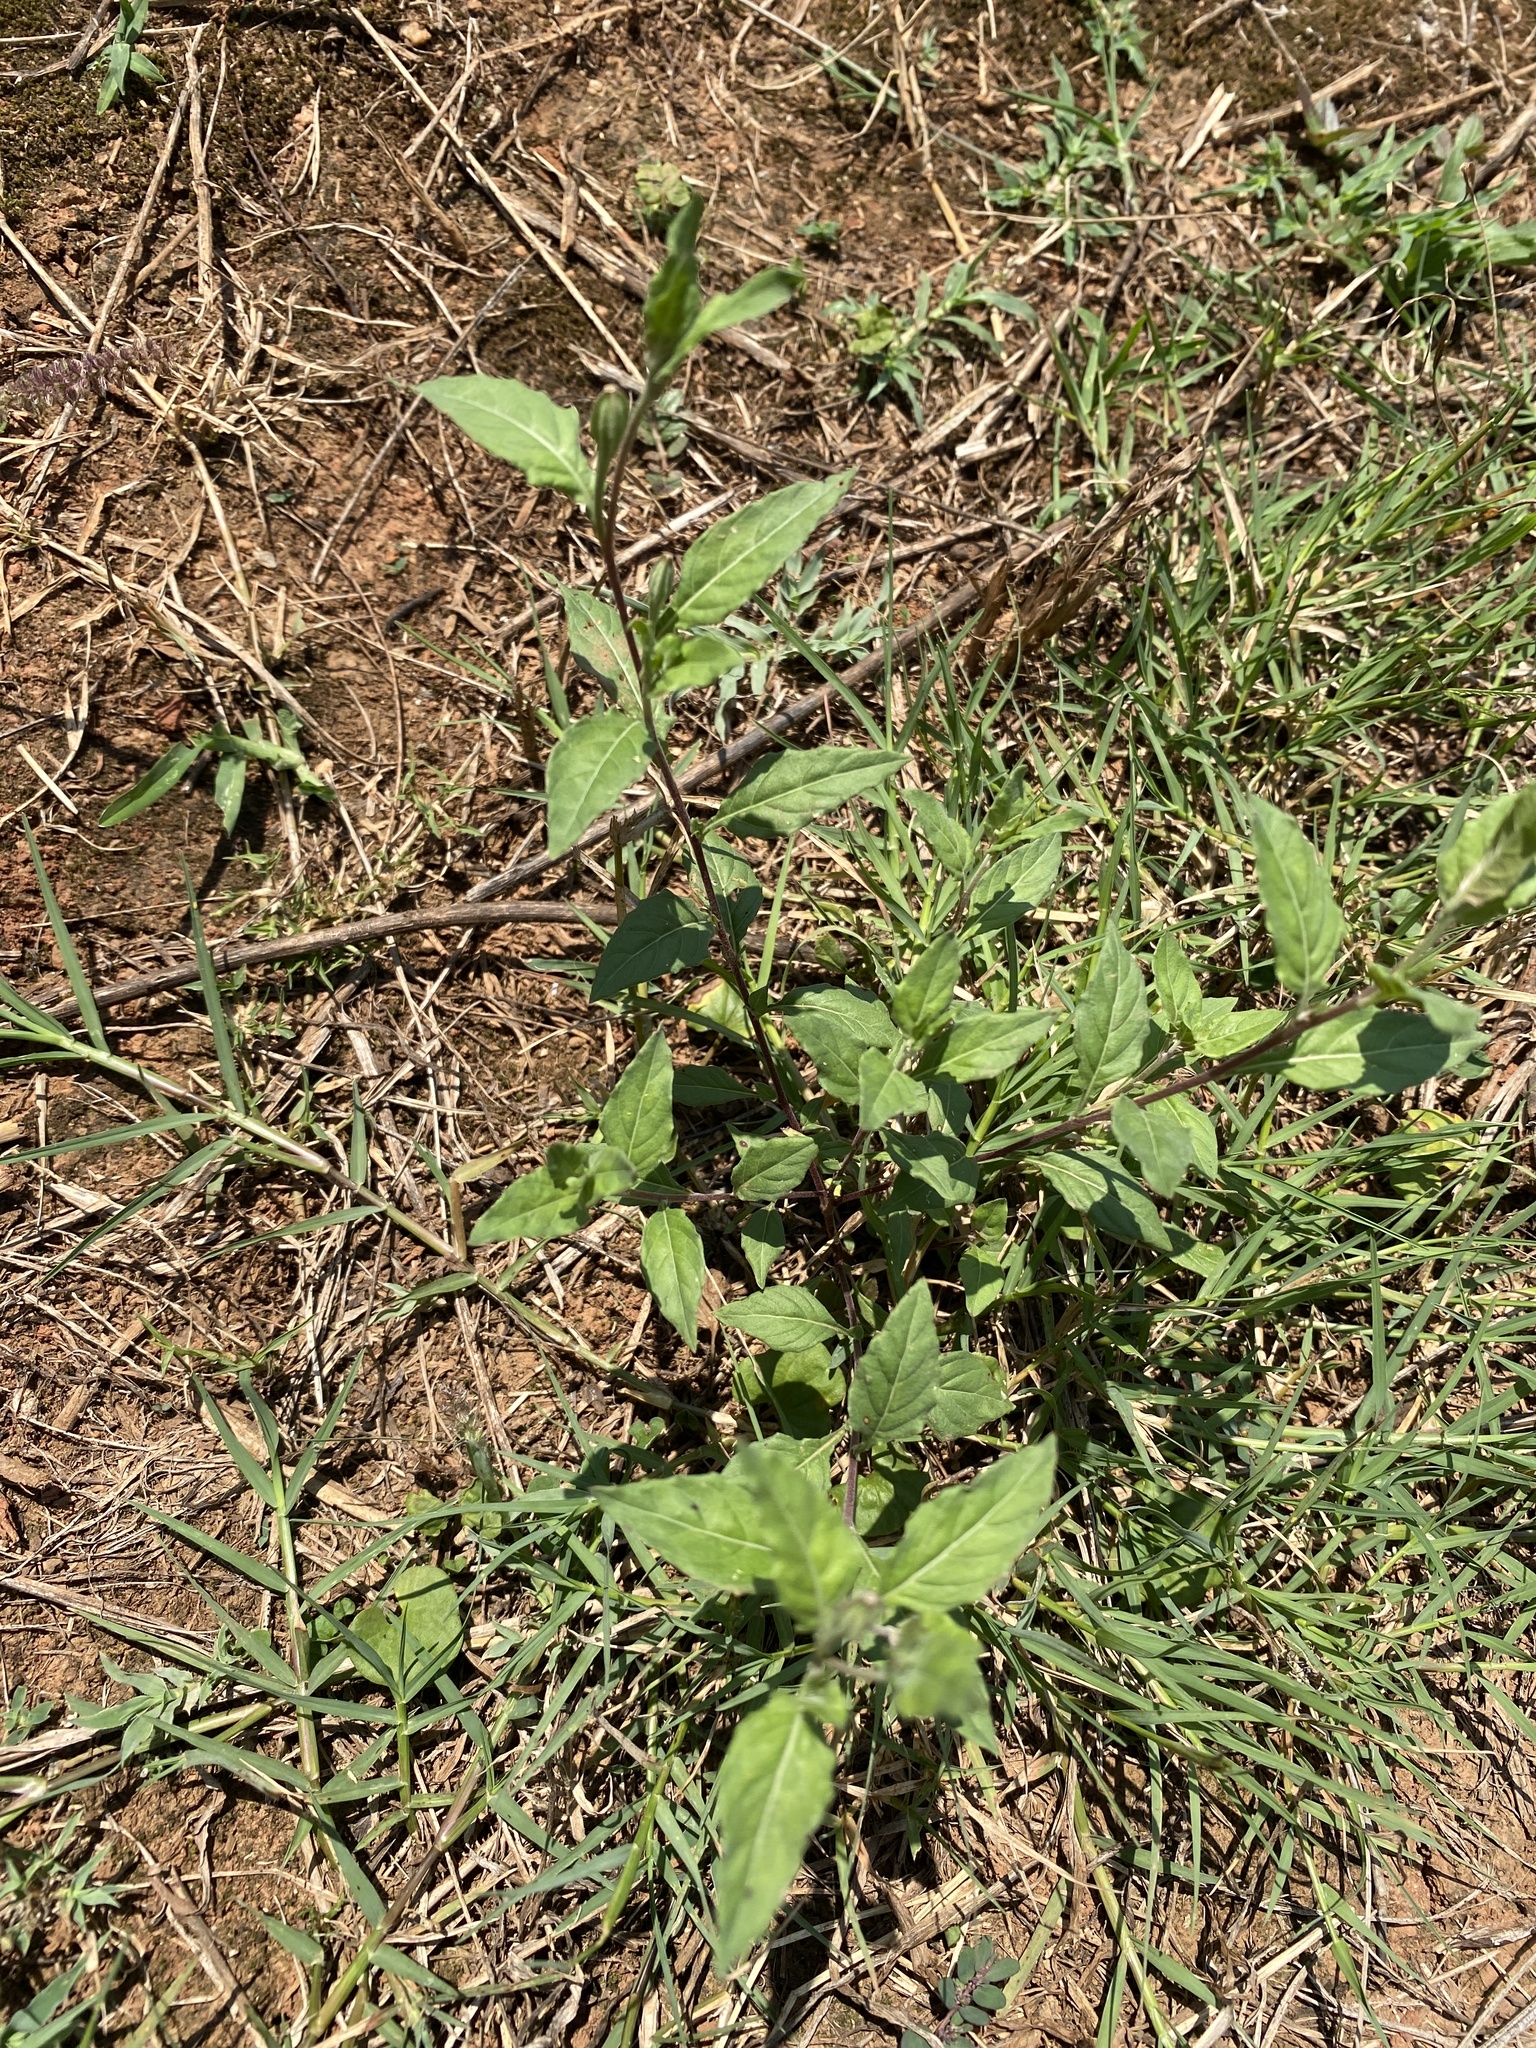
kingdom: Plantae
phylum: Tracheophyta
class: Magnoliopsida
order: Myrtales
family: Onagraceae
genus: Oenothera
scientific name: Oenothera rosea
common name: Rosy evening-primrose
